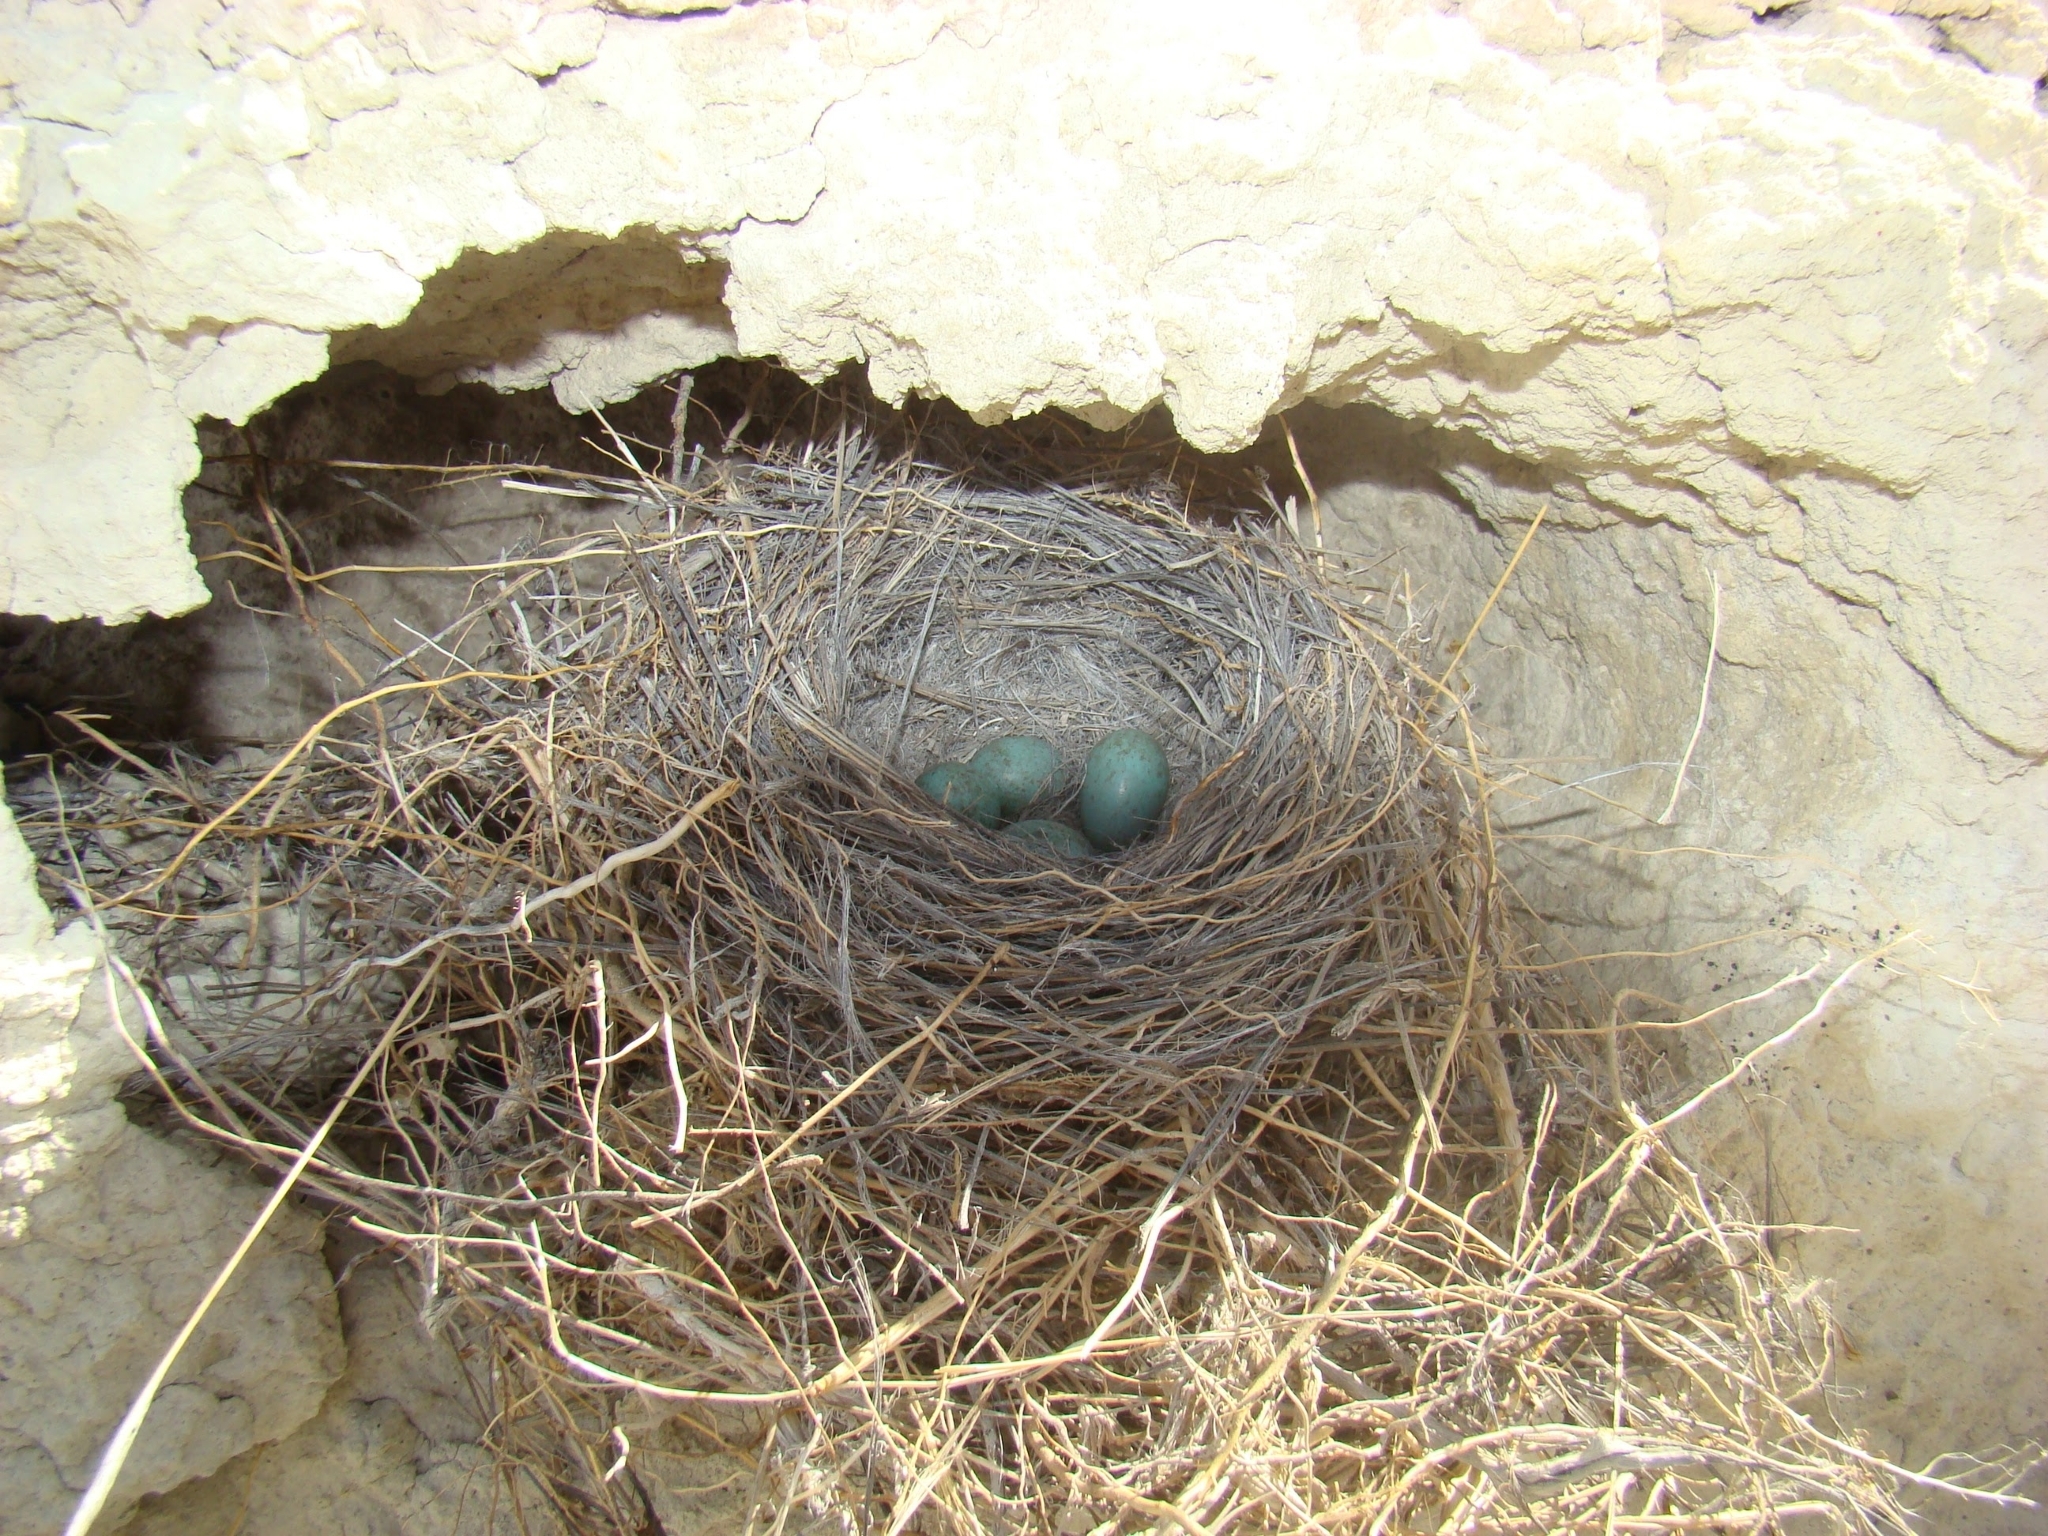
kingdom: Animalia
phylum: Chordata
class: Aves
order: Passeriformes
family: Thraupidae
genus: Phrygilus
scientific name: Phrygilus gayi
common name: Grey-hooded sierra finch
